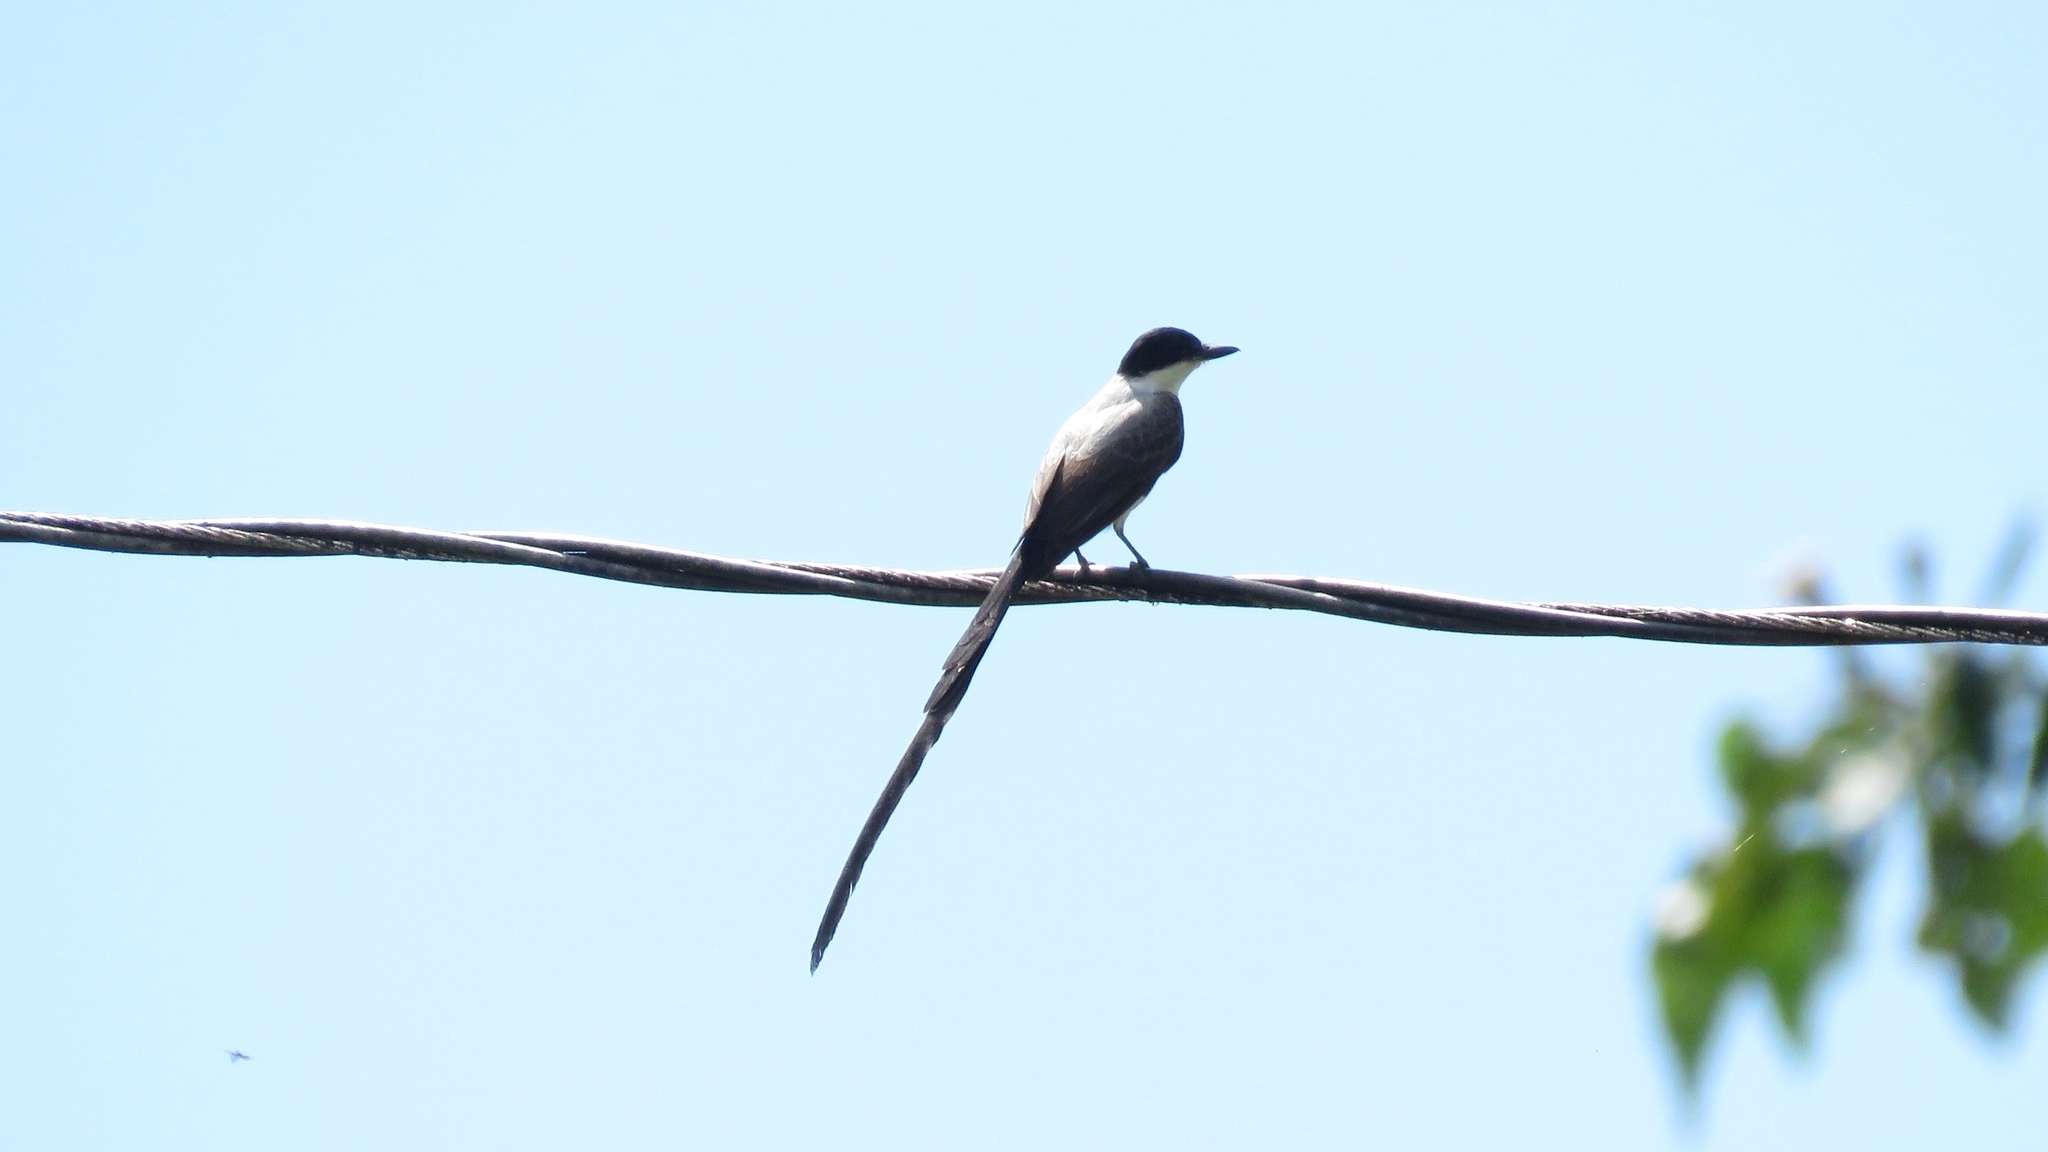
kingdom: Animalia
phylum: Chordata
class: Aves
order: Passeriformes
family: Tyrannidae
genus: Tyrannus
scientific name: Tyrannus savana
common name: Fork-tailed flycatcher
